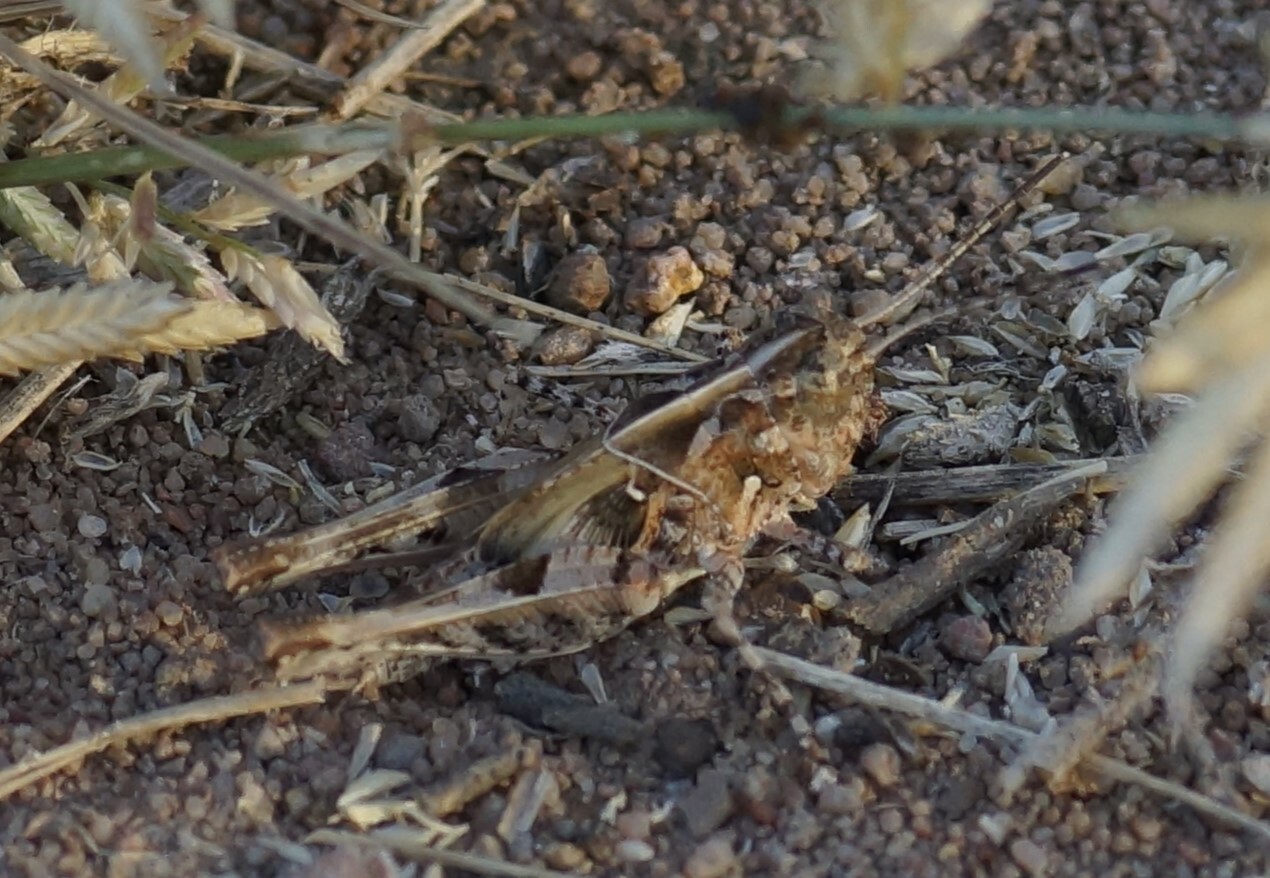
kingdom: Animalia
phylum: Arthropoda
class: Insecta
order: Orthoptera
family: Acrididae
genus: Heteropternis
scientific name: Heteropternis obscurella
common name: Long-legged bandwing
